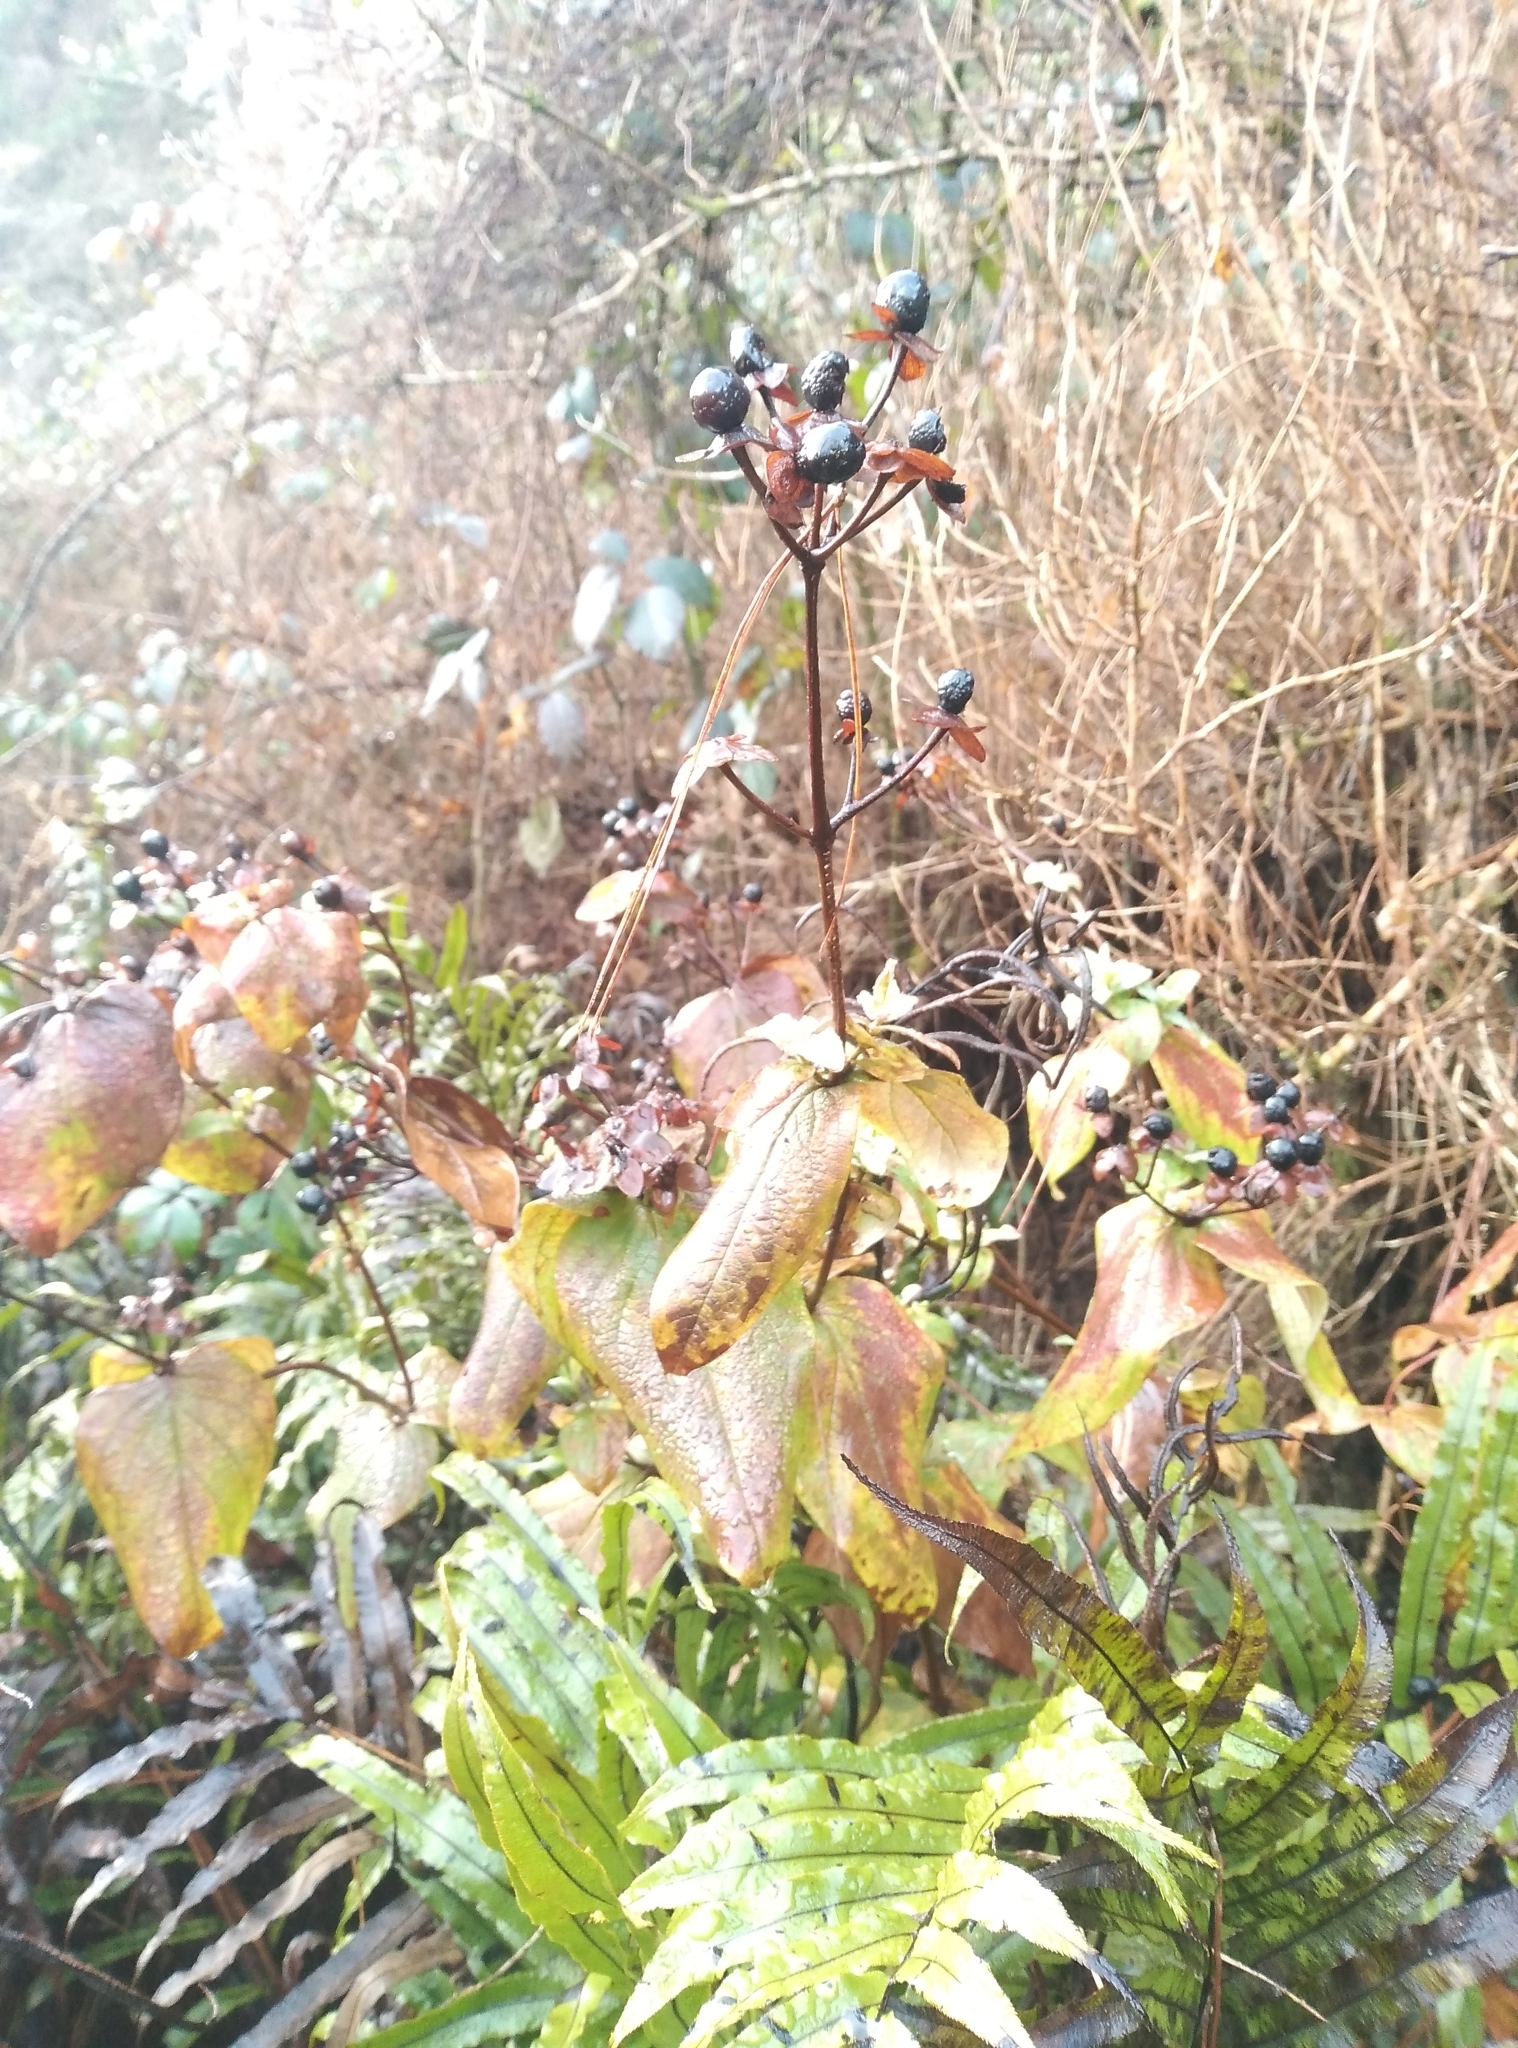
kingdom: Plantae
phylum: Tracheophyta
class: Magnoliopsida
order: Malpighiales
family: Hypericaceae
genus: Hypericum
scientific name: Hypericum androsaemum
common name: Sweet-amber
